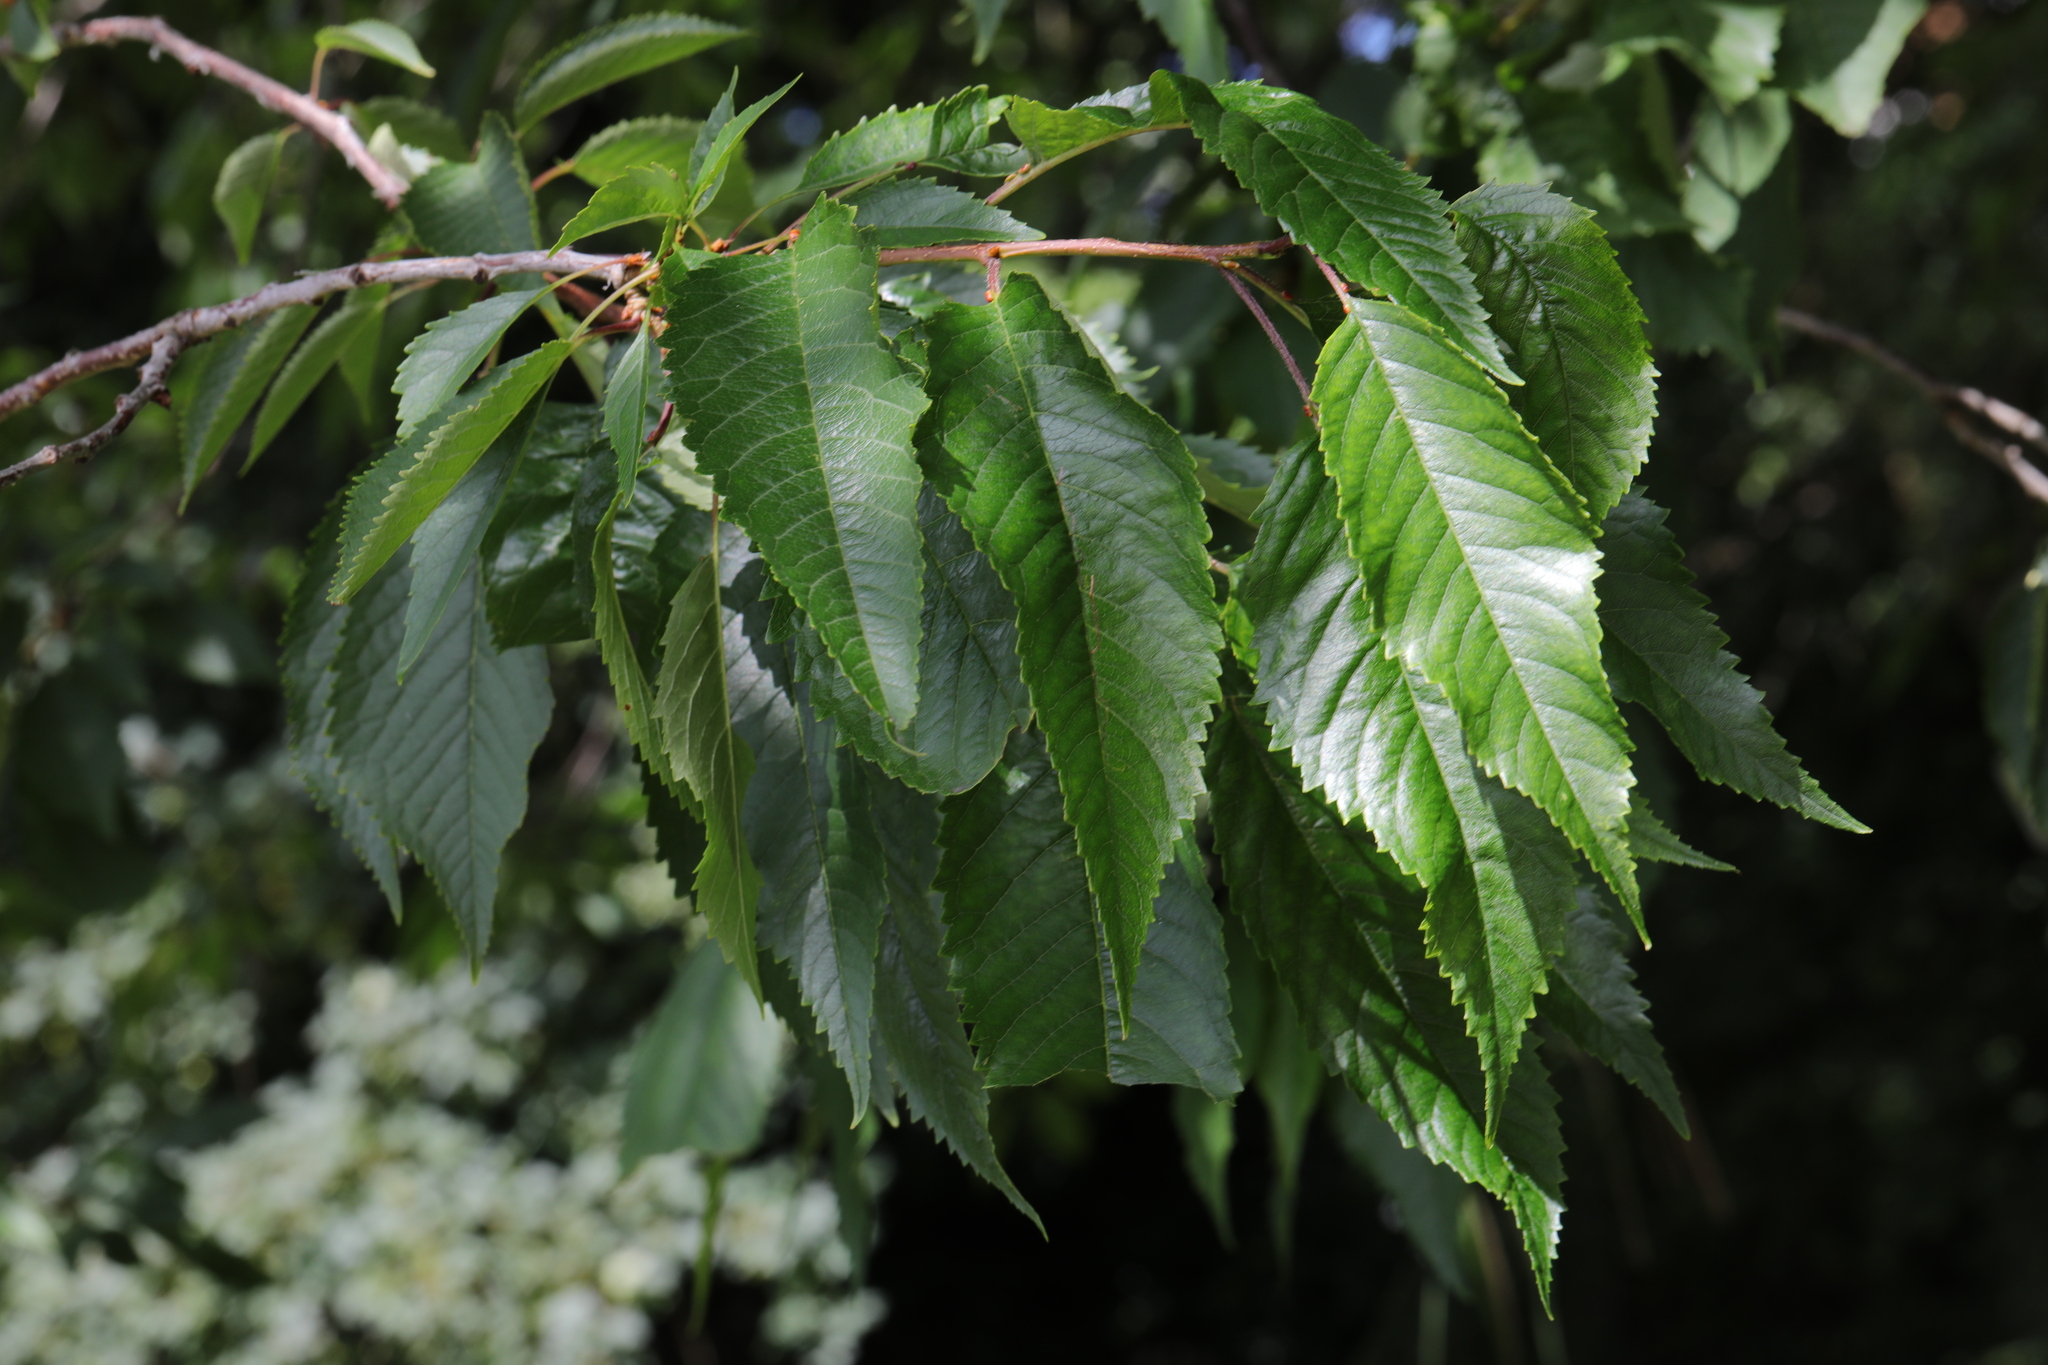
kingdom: Plantae
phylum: Tracheophyta
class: Magnoliopsida
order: Rosales
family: Rosaceae
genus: Prunus
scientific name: Prunus avium
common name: Sweet cherry
